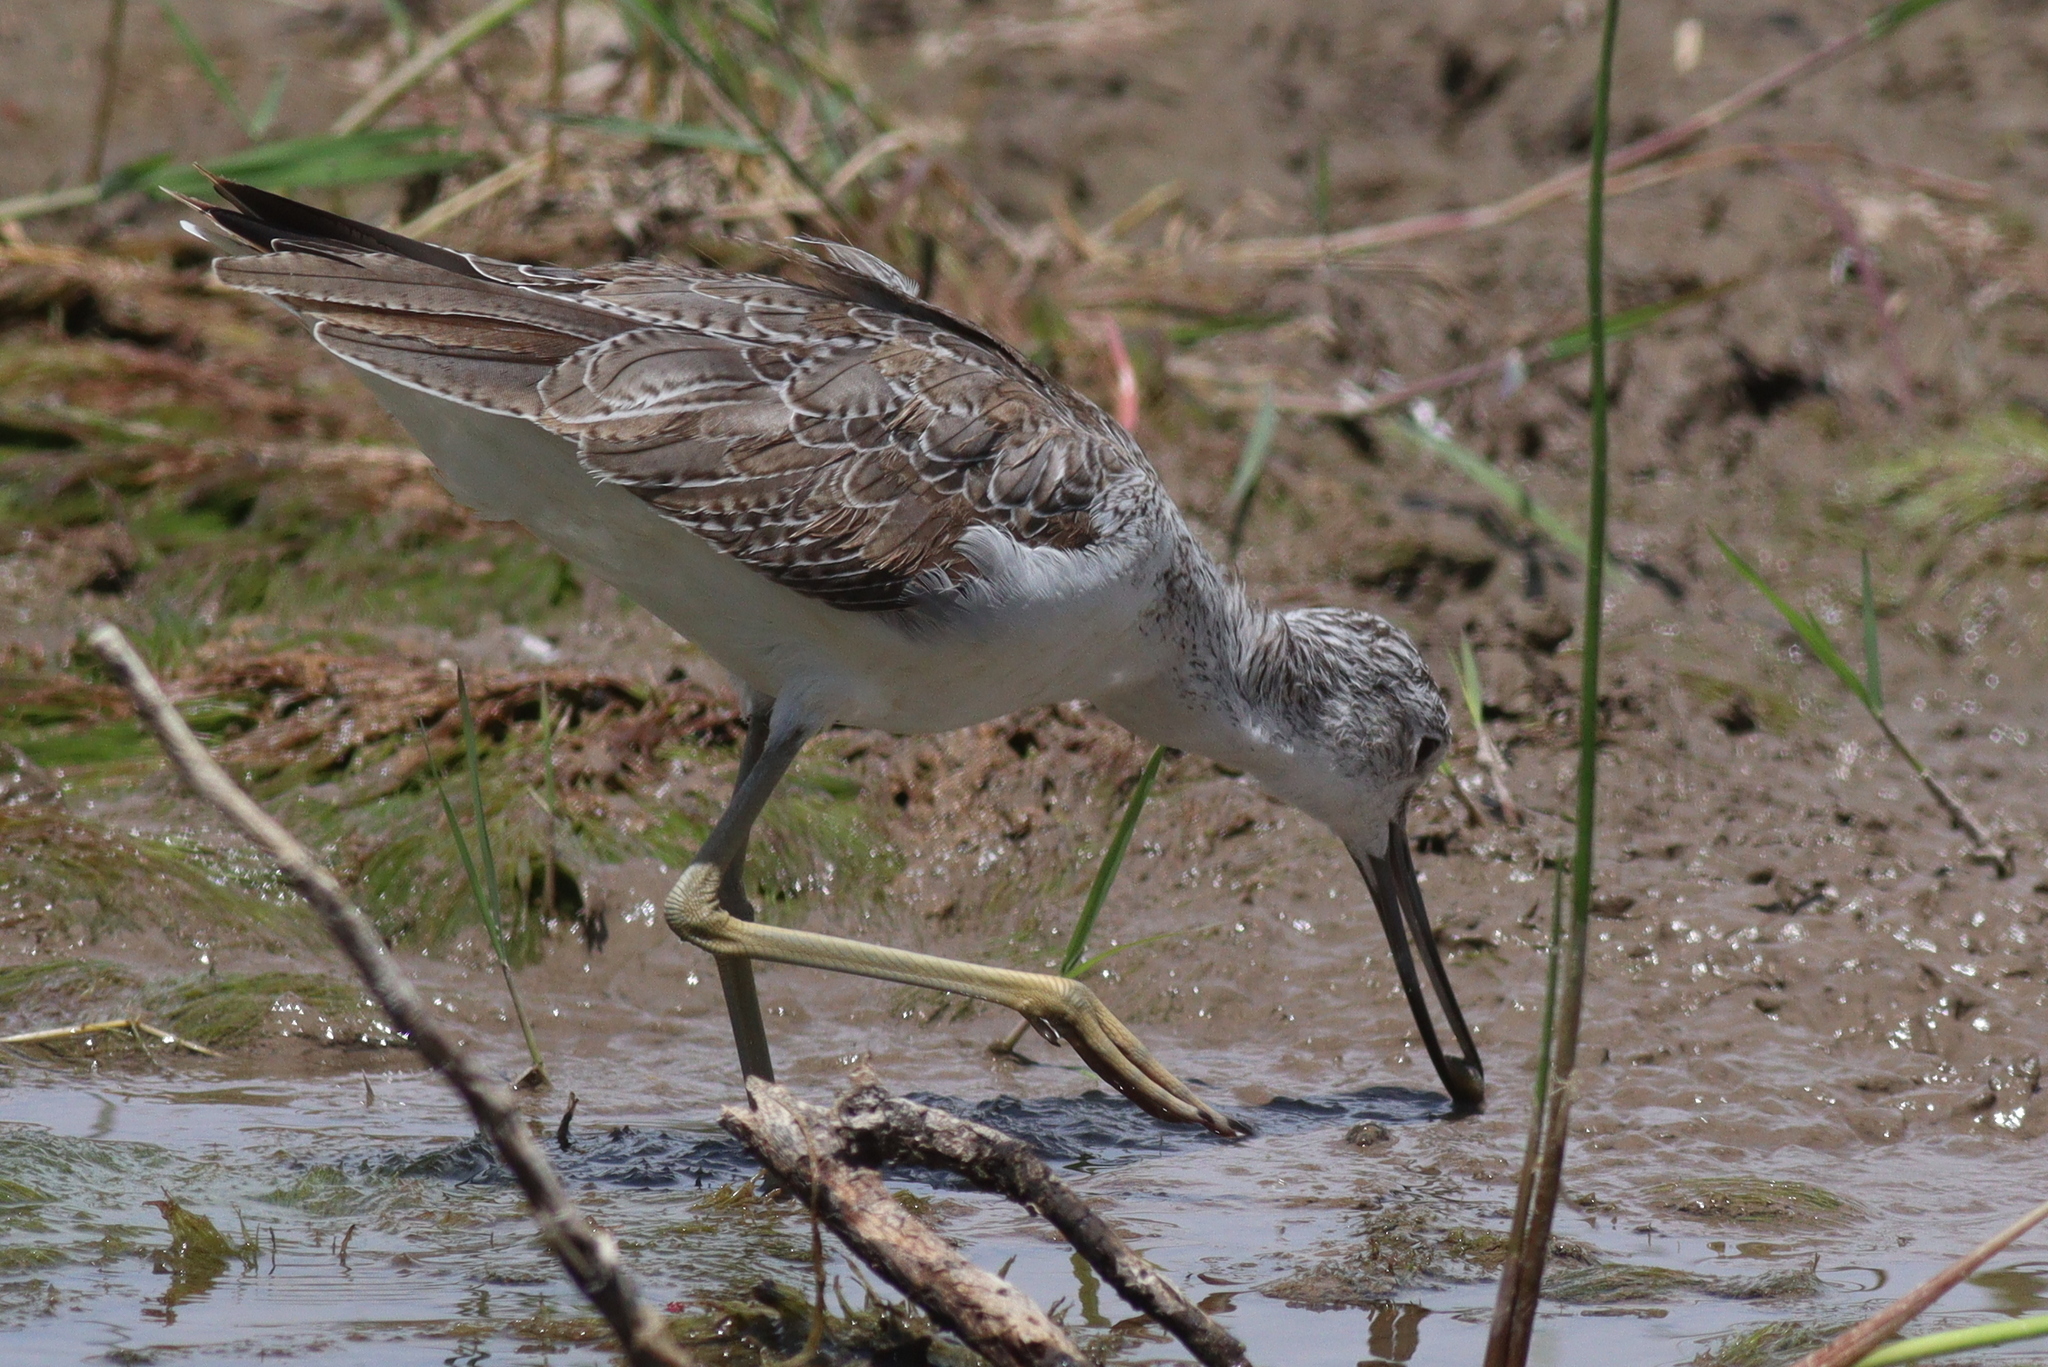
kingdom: Animalia
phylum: Chordata
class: Aves
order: Charadriiformes
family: Scolopacidae
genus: Tringa
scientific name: Tringa nebularia
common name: Common greenshank
